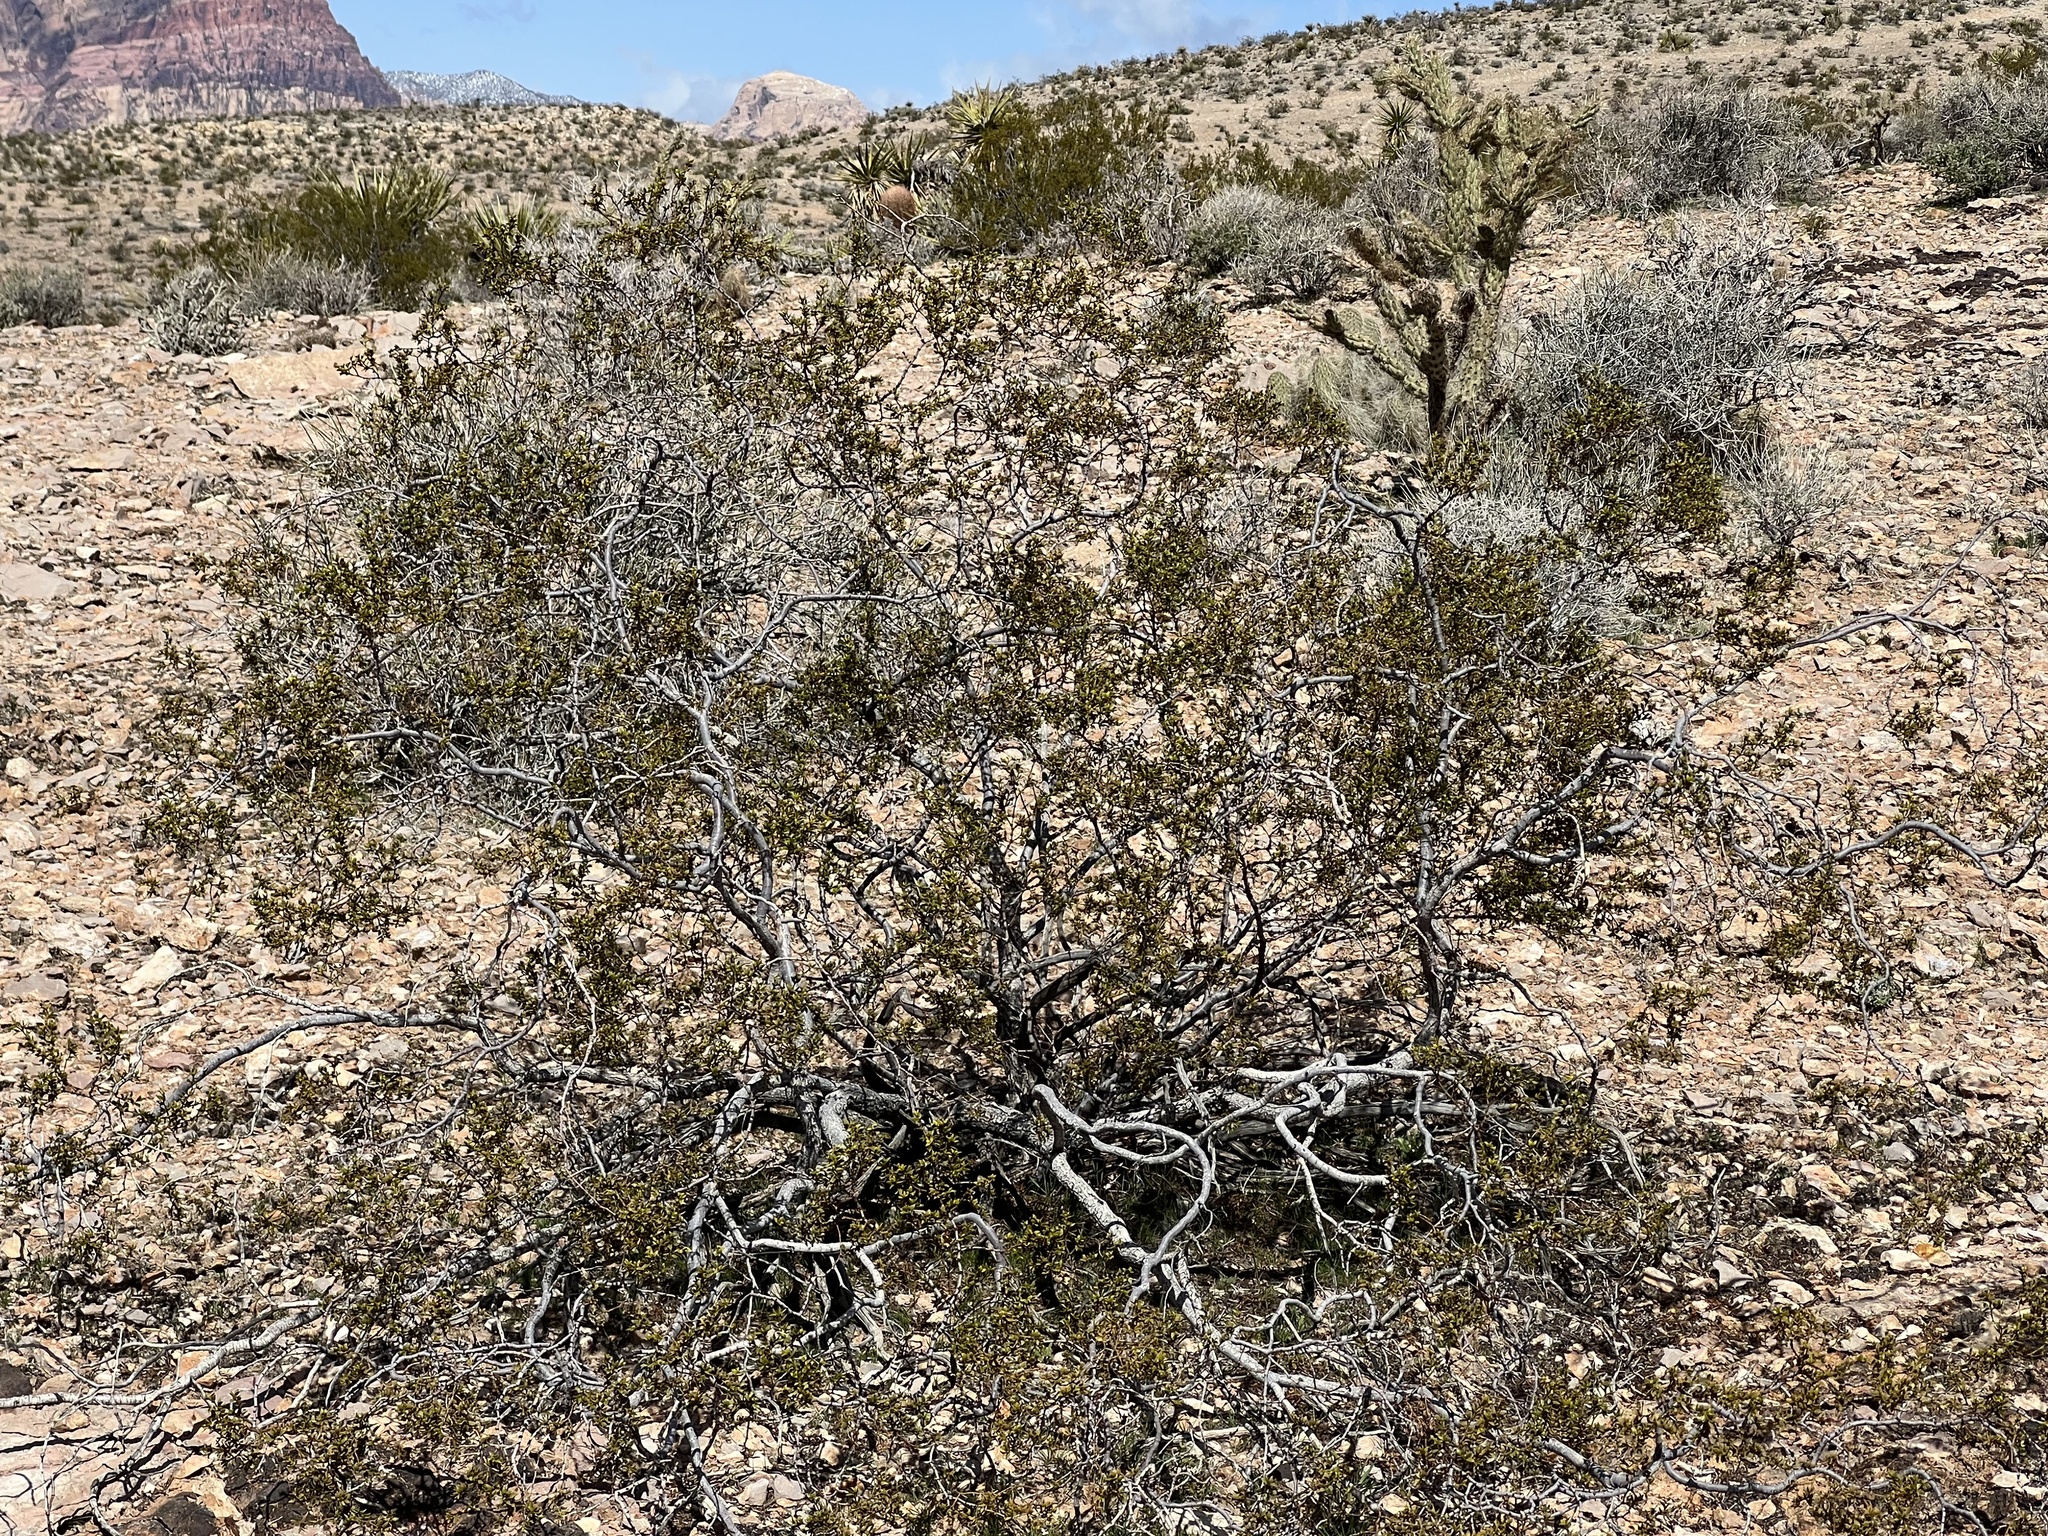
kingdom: Plantae
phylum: Tracheophyta
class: Magnoliopsida
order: Zygophyllales
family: Zygophyllaceae
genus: Larrea
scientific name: Larrea tridentata
